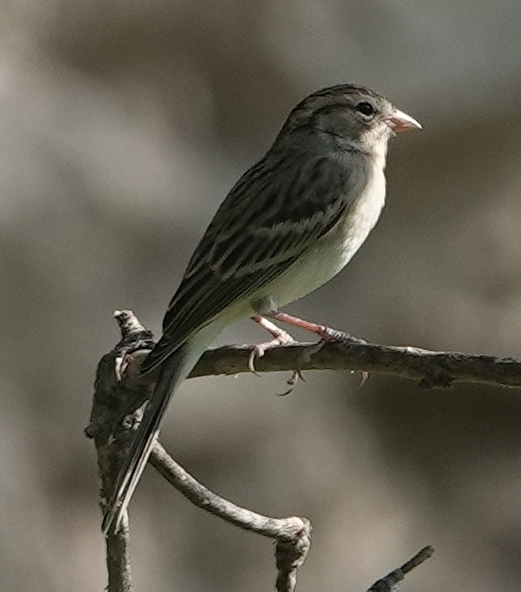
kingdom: Animalia
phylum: Chordata
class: Aves
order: Passeriformes
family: Passerellidae
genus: Spizella
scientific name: Spizella passerina
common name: Chipping sparrow
